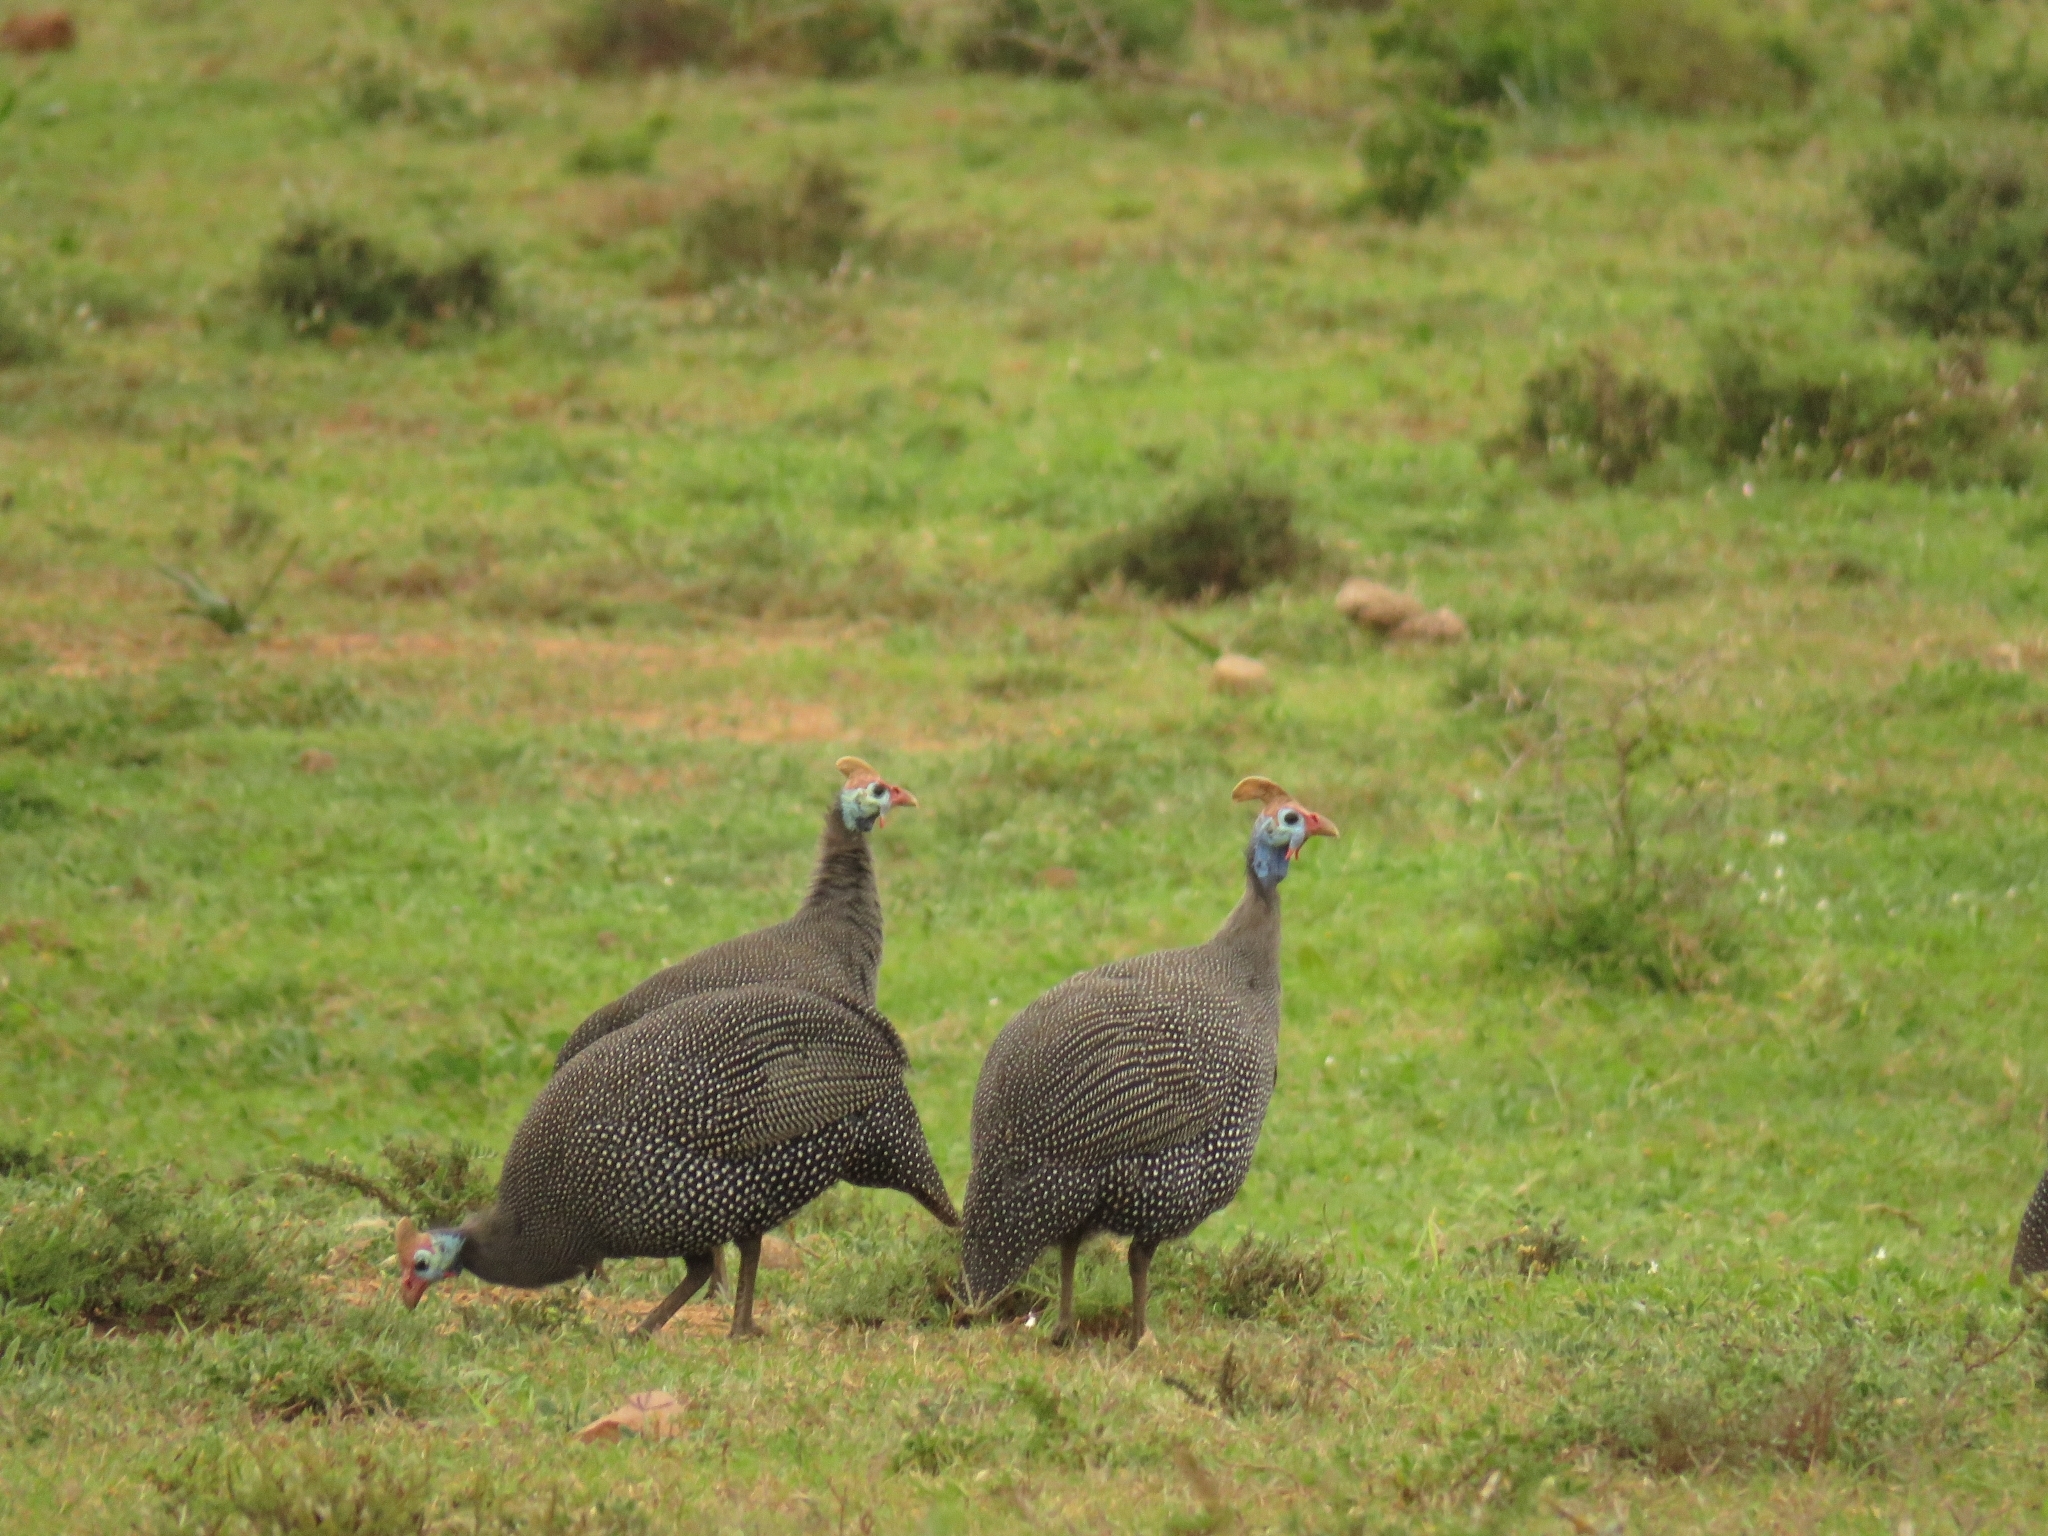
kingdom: Animalia
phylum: Chordata
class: Aves
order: Galliformes
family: Numididae
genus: Numida
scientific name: Numida meleagris
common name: Helmeted guineafowl
